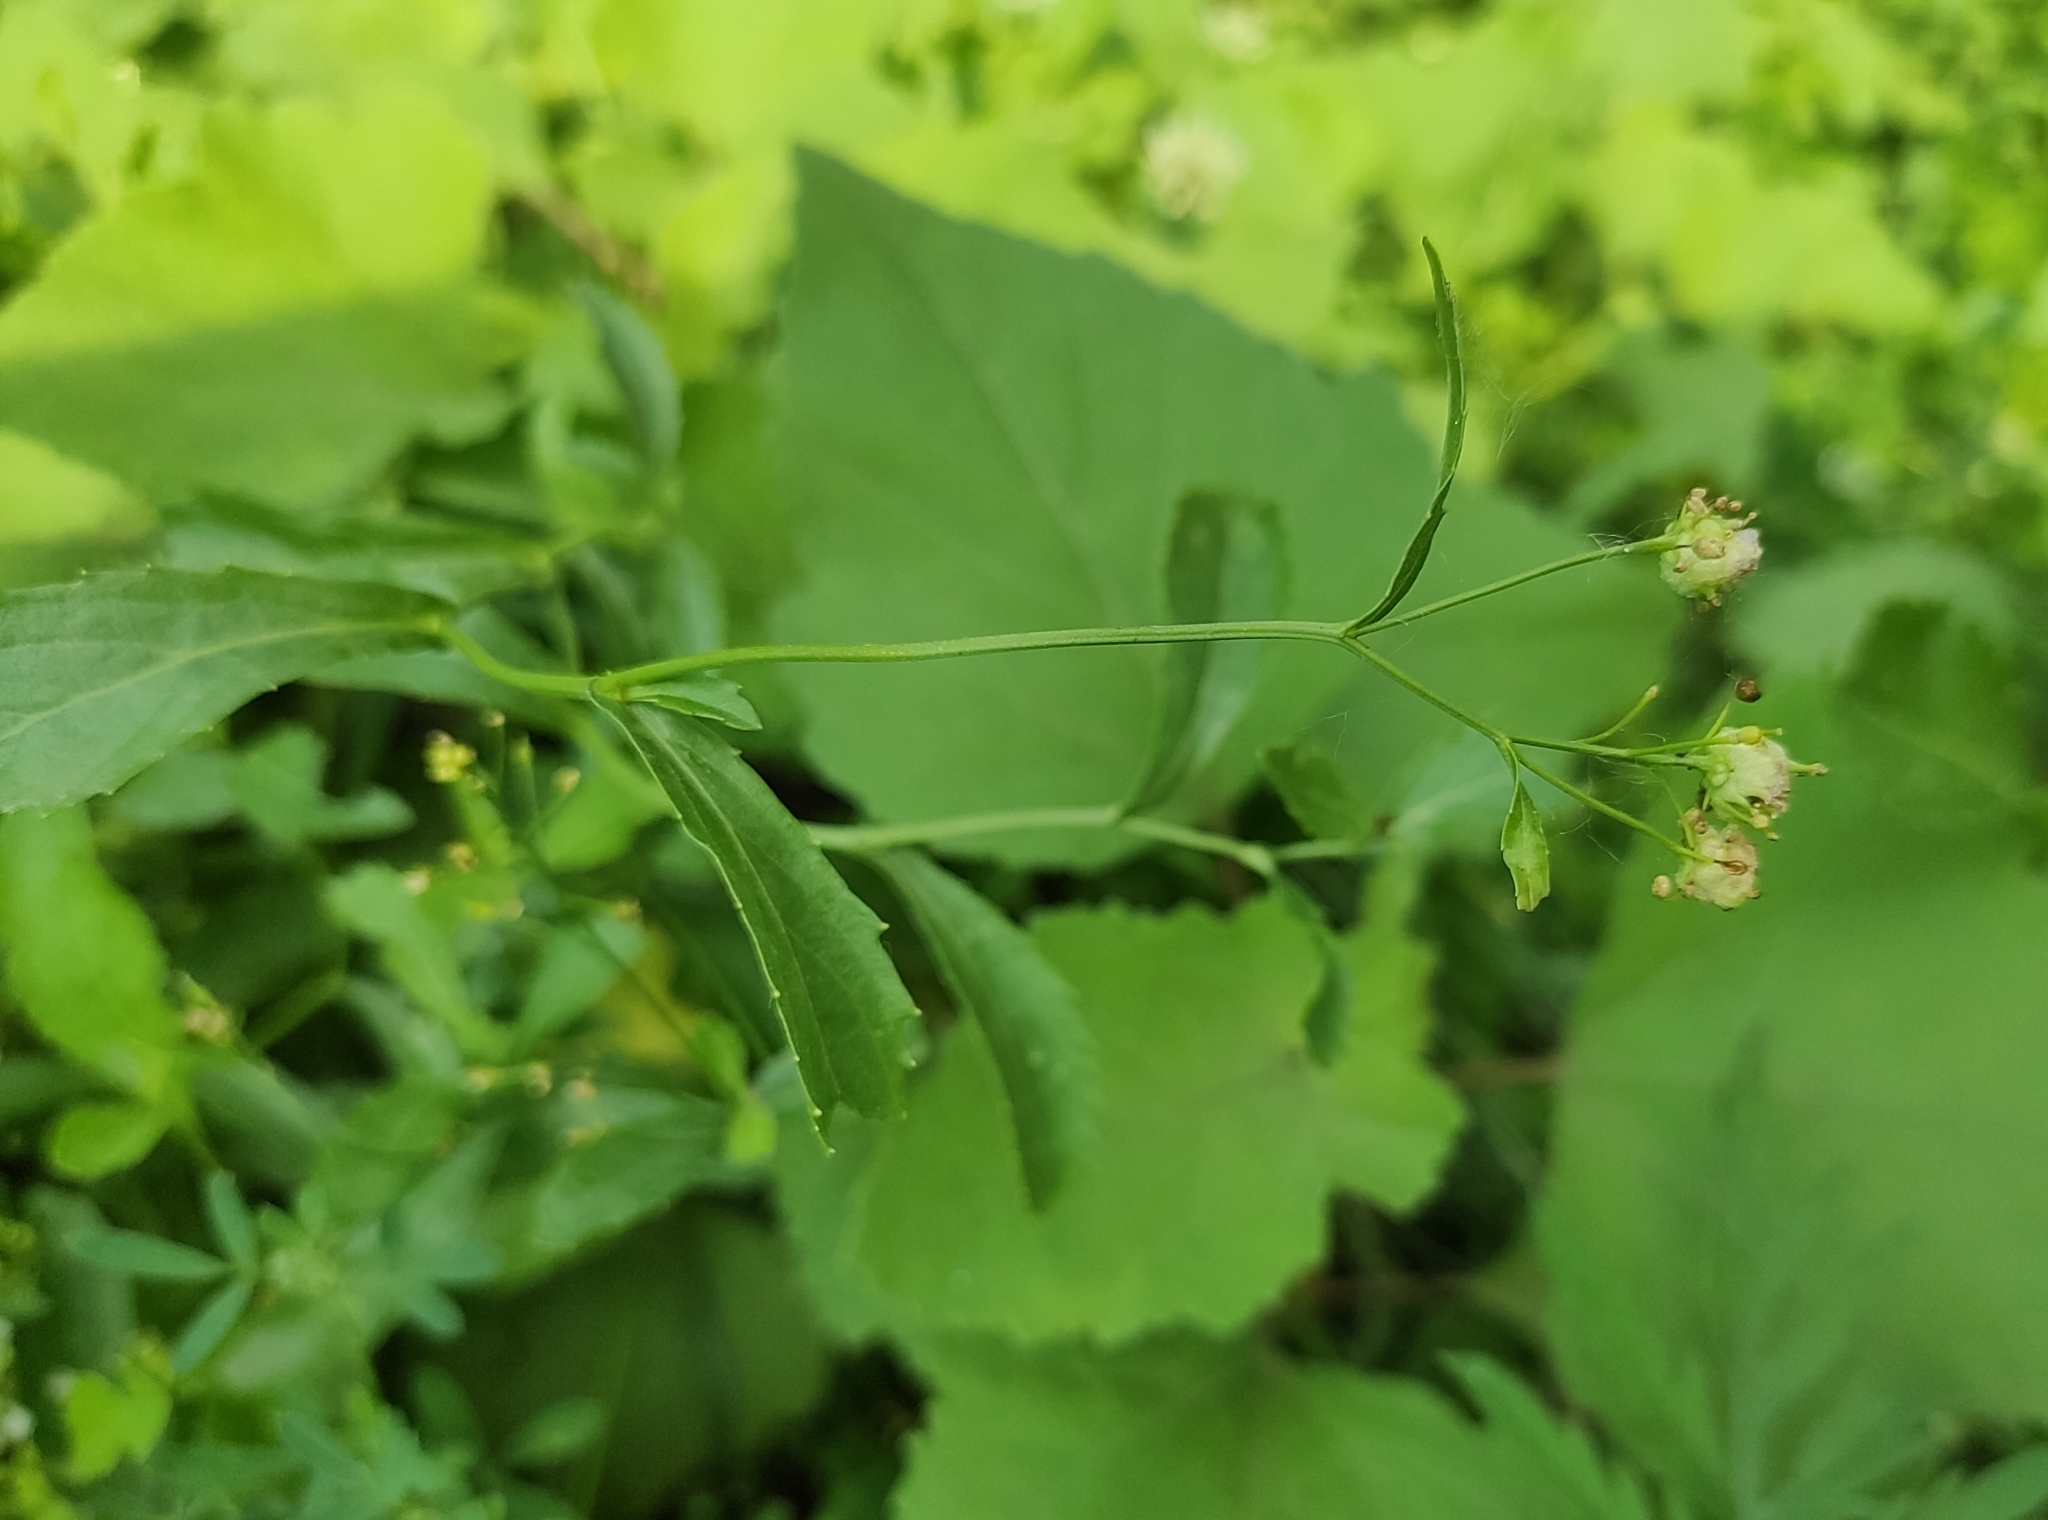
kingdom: Plantae
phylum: Tracheophyta
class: Magnoliopsida
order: Brassicales
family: Brassicaceae
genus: Rorippa
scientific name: Rorippa austriaca
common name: Austrian yellow-cress
